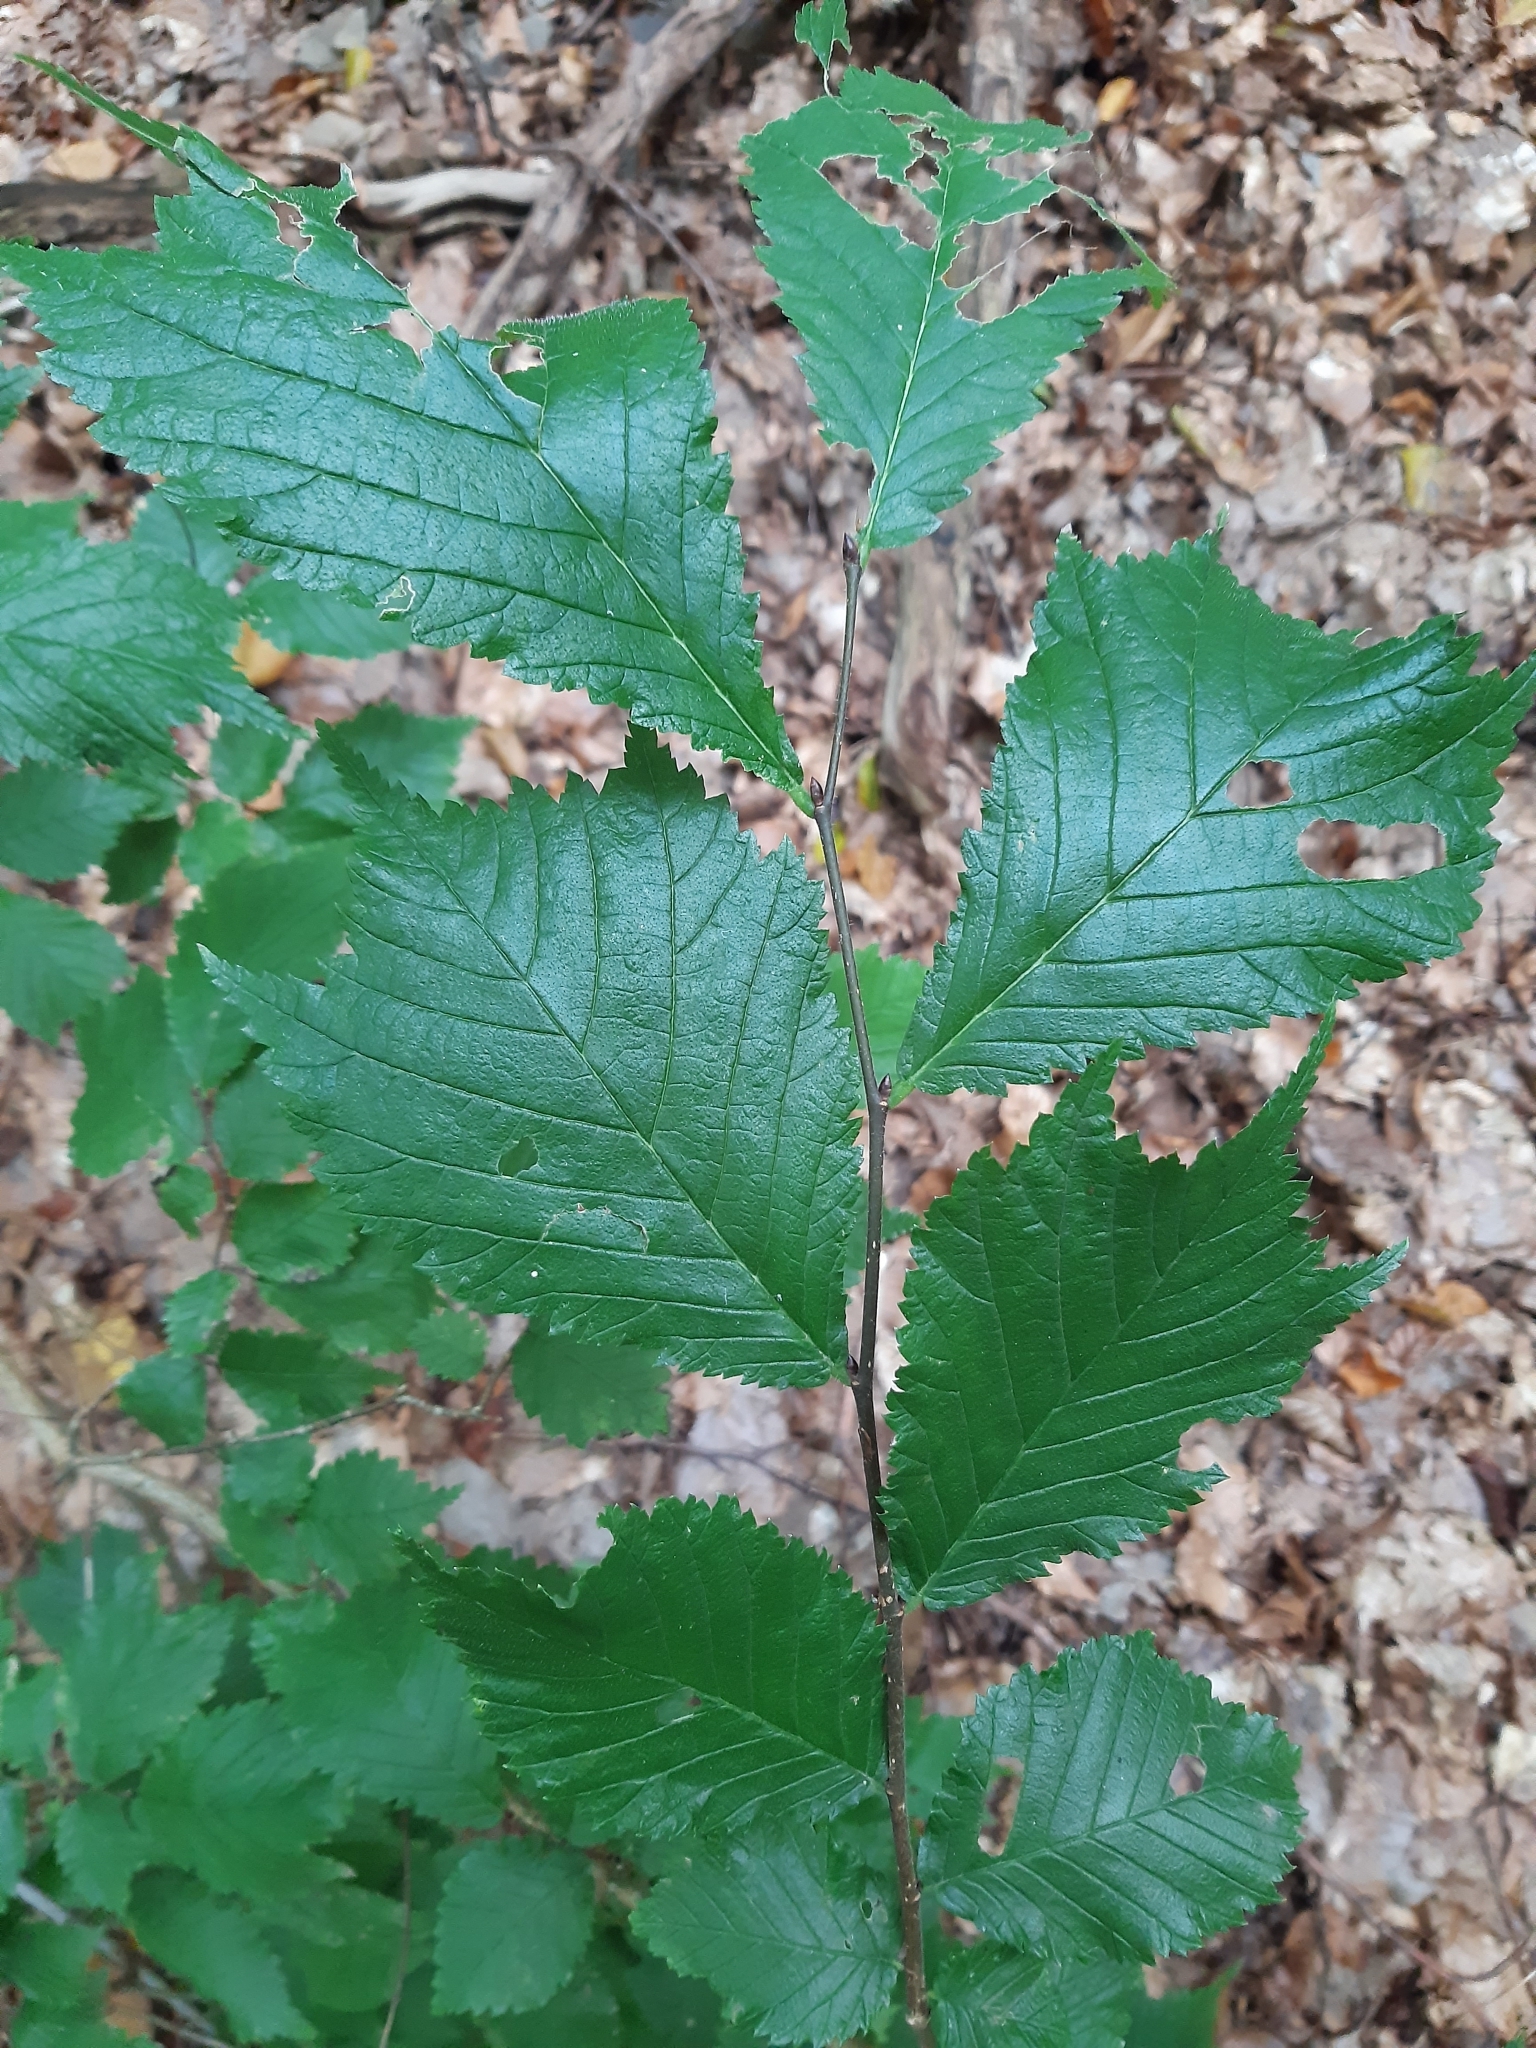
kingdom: Plantae
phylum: Tracheophyta
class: Magnoliopsida
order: Rosales
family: Ulmaceae
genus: Ulmus
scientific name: Ulmus glabra
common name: Wych elm
